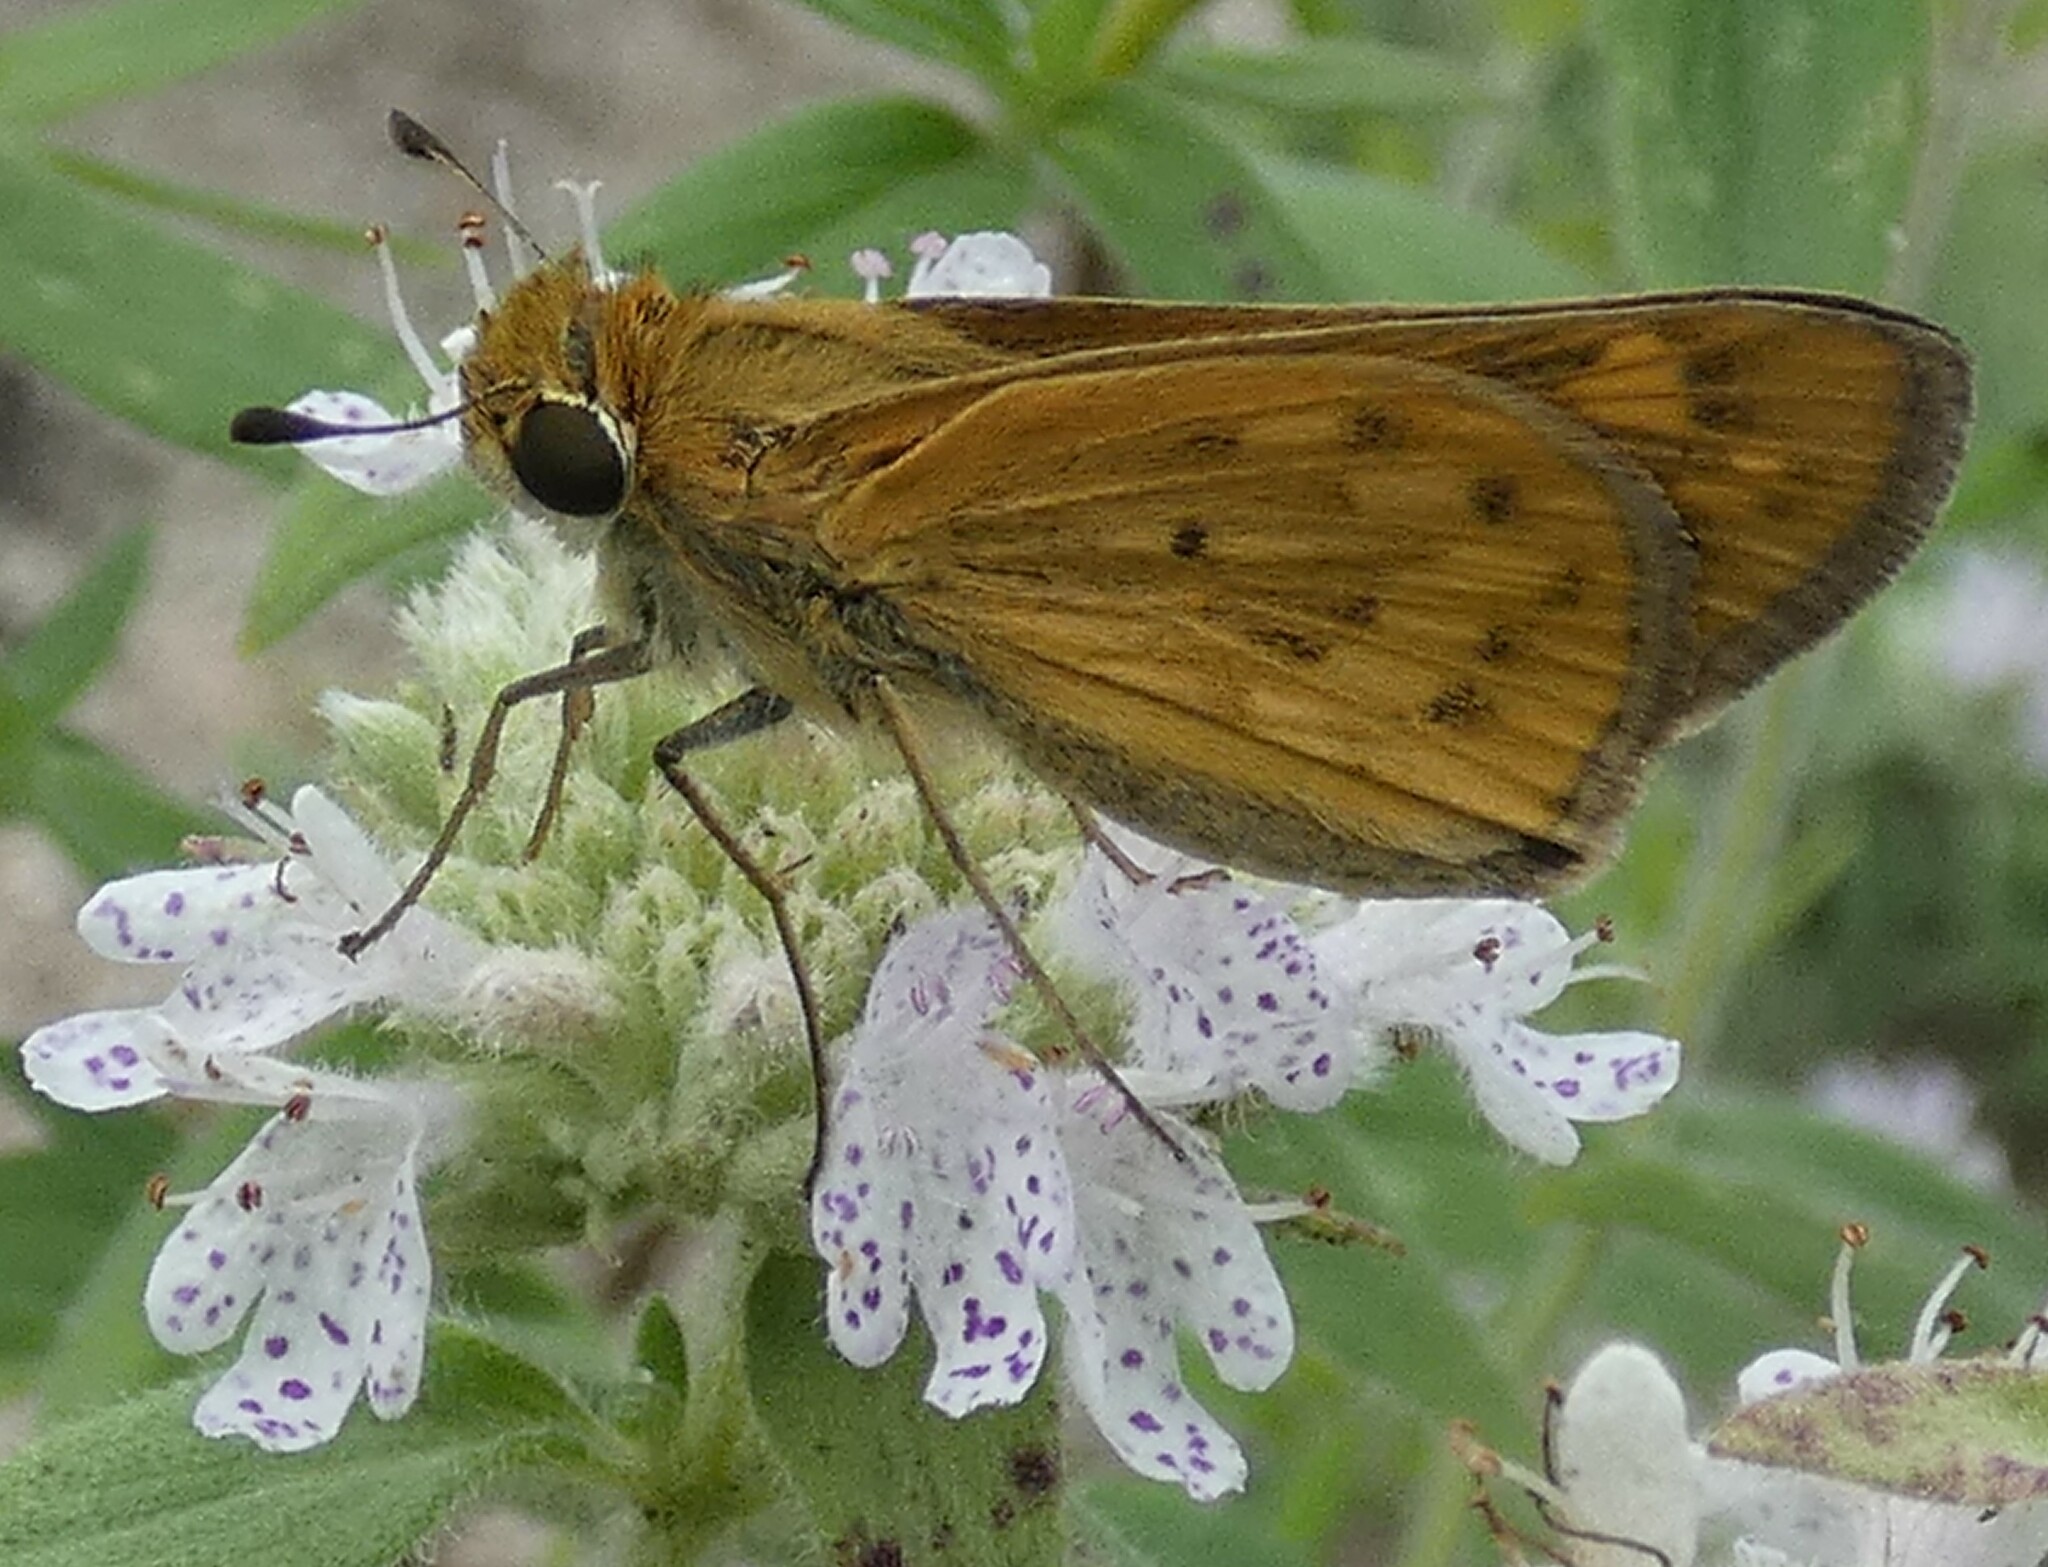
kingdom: Animalia
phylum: Arthropoda
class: Insecta
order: Lepidoptera
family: Hesperiidae
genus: Hylephila
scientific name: Hylephila phyleus
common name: Fiery skipper
